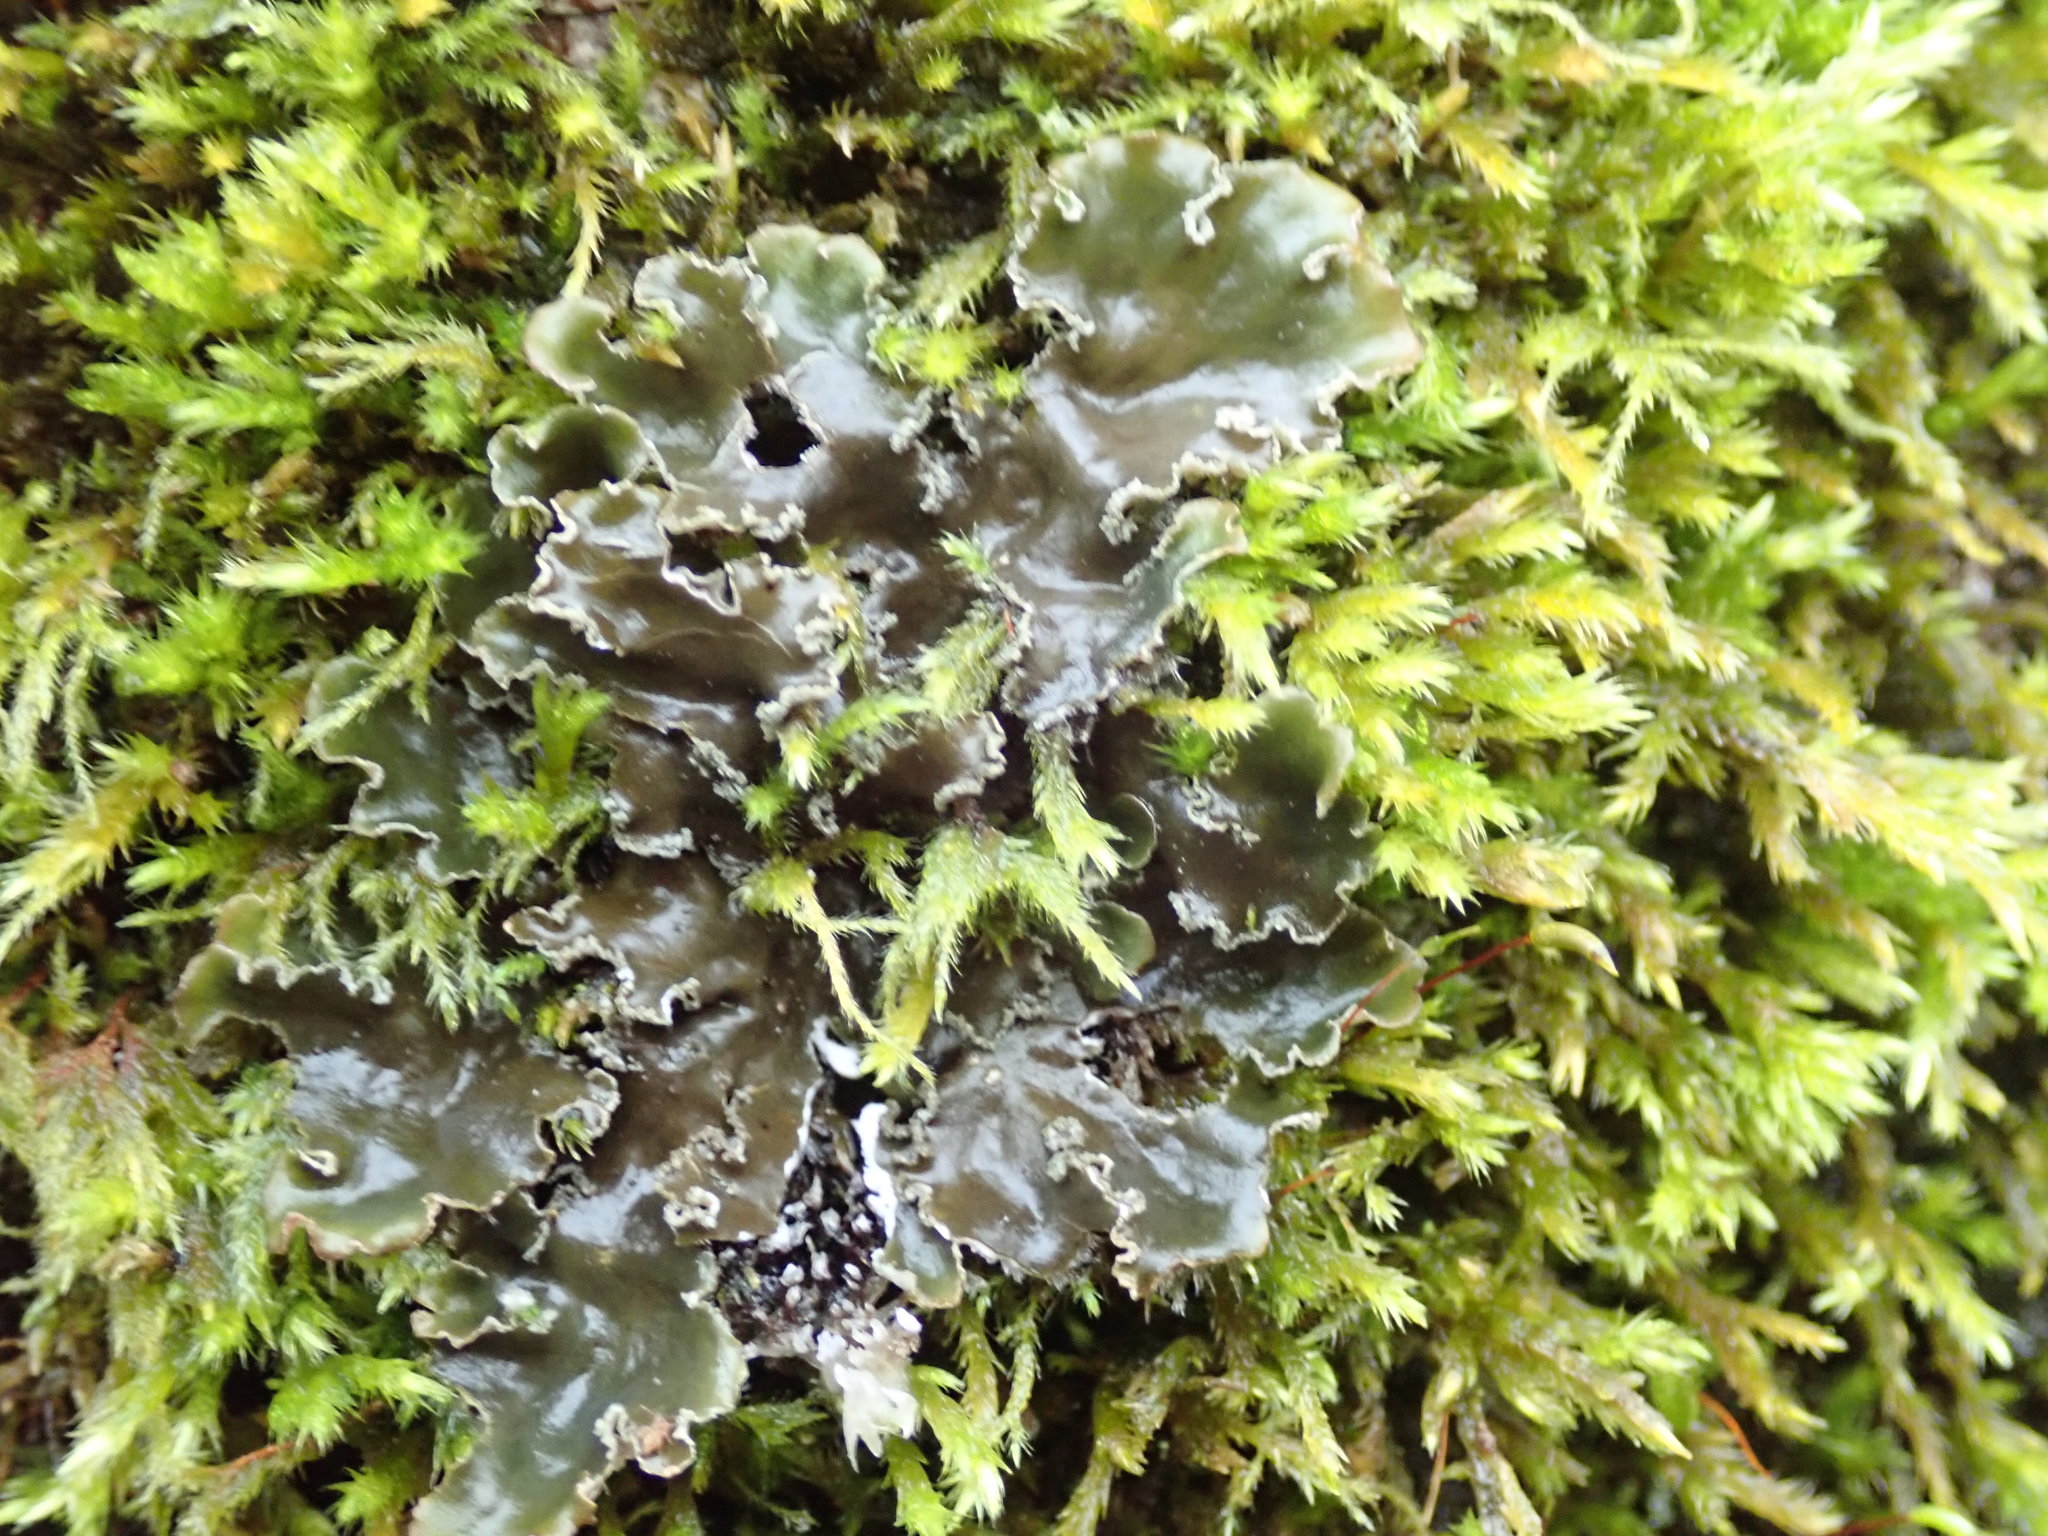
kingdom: Fungi
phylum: Ascomycota
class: Lecanoromycetes
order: Peltigerales
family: Peltigeraceae
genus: Peltigera
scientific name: Peltigera collina
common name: Gritty tree pelt lichen
